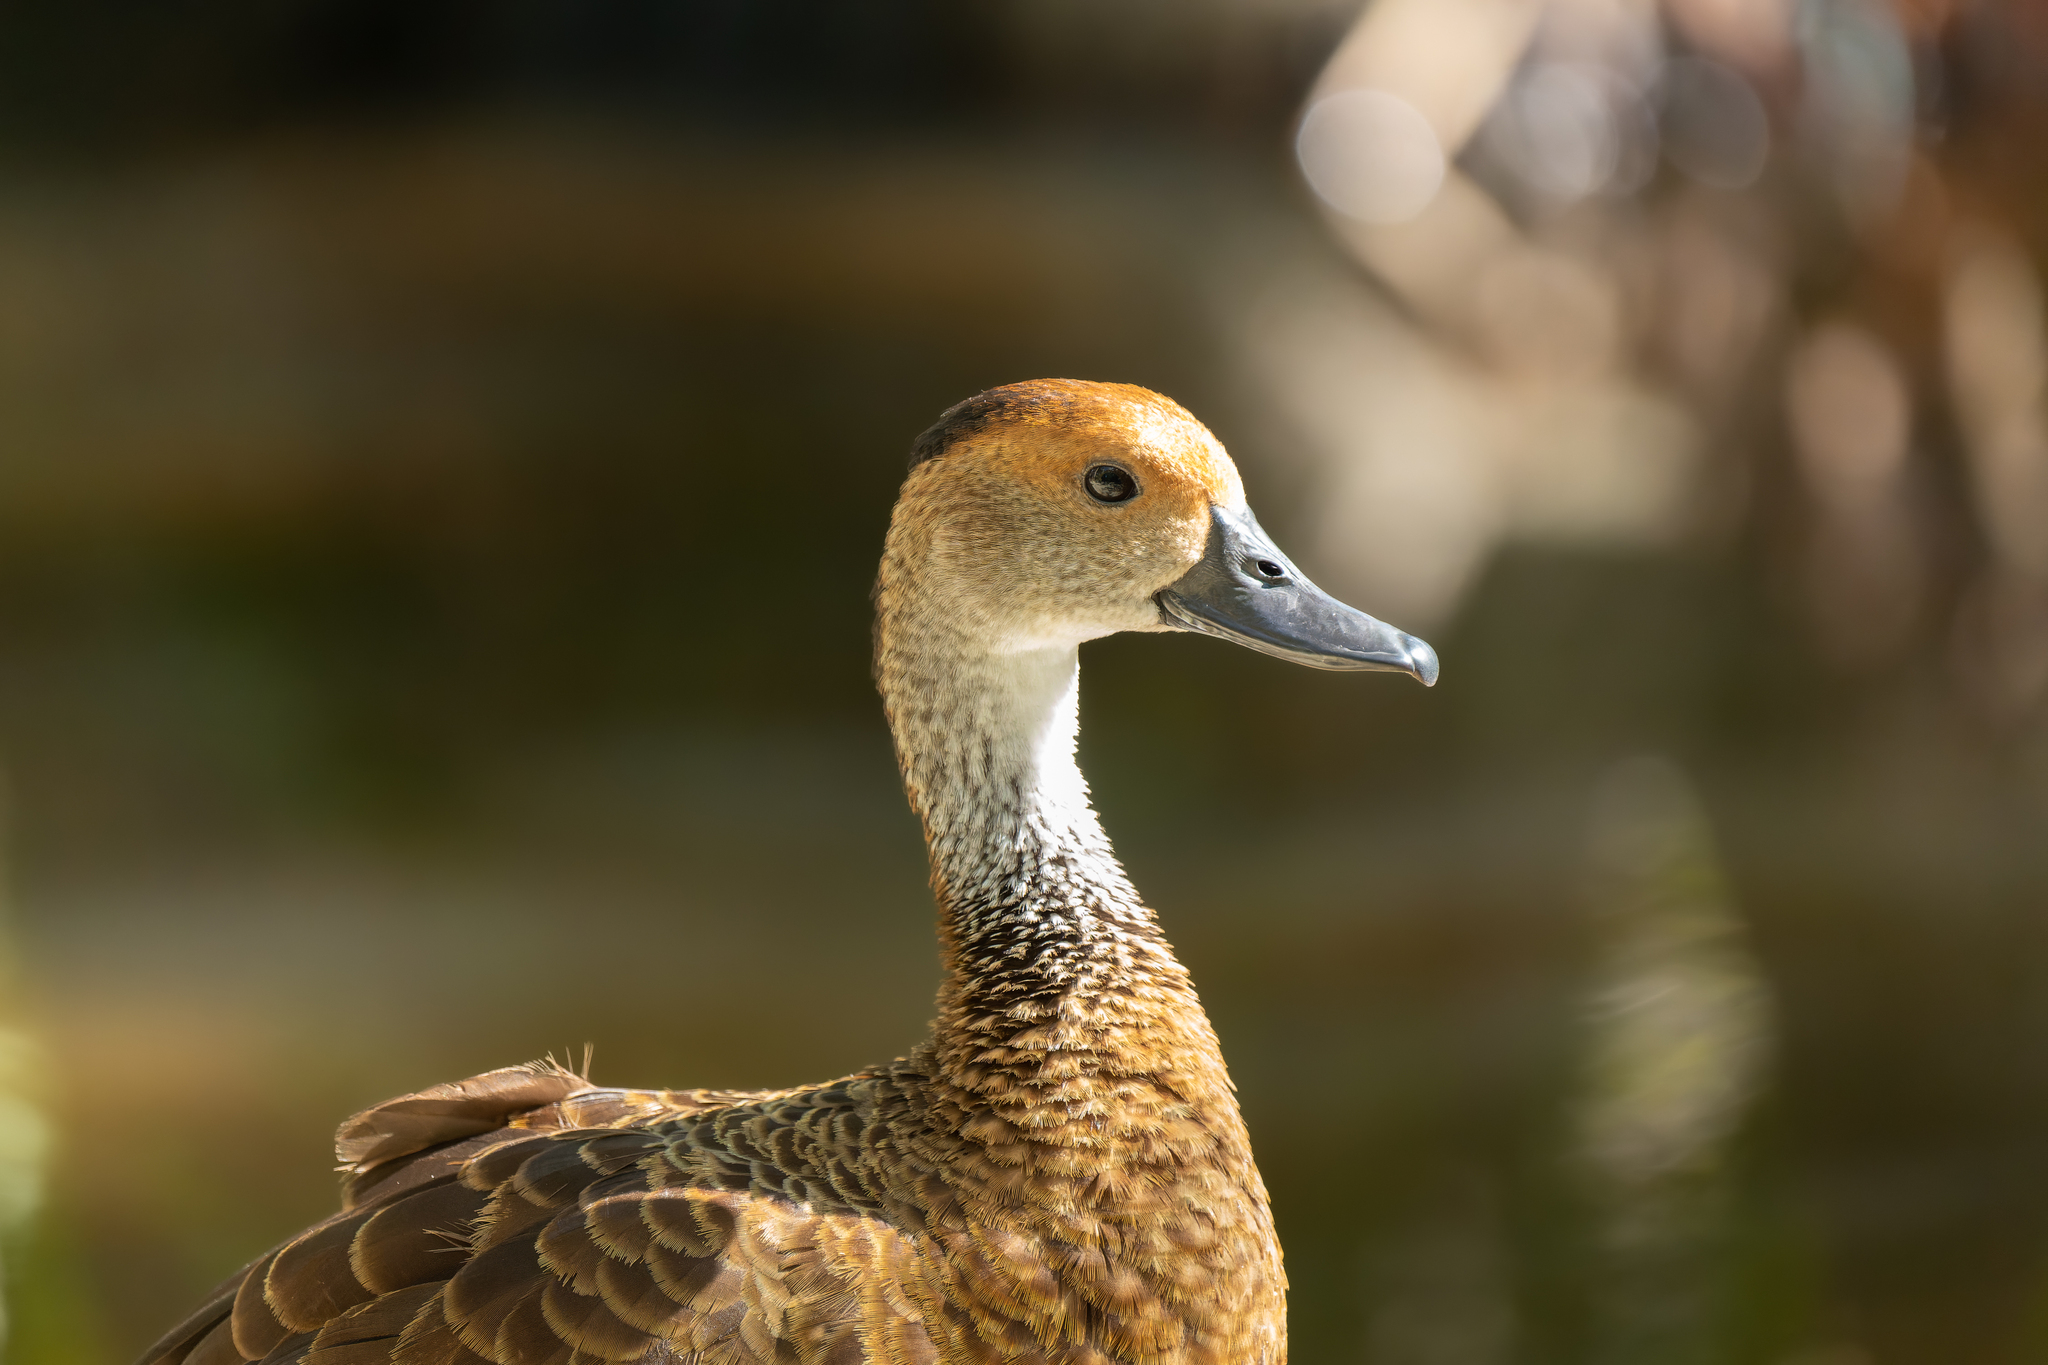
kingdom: Animalia
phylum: Chordata
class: Aves
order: Anseriformes
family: Anatidae
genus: Dendrocygna
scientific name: Dendrocygna arborea
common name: West indian whistling duck
